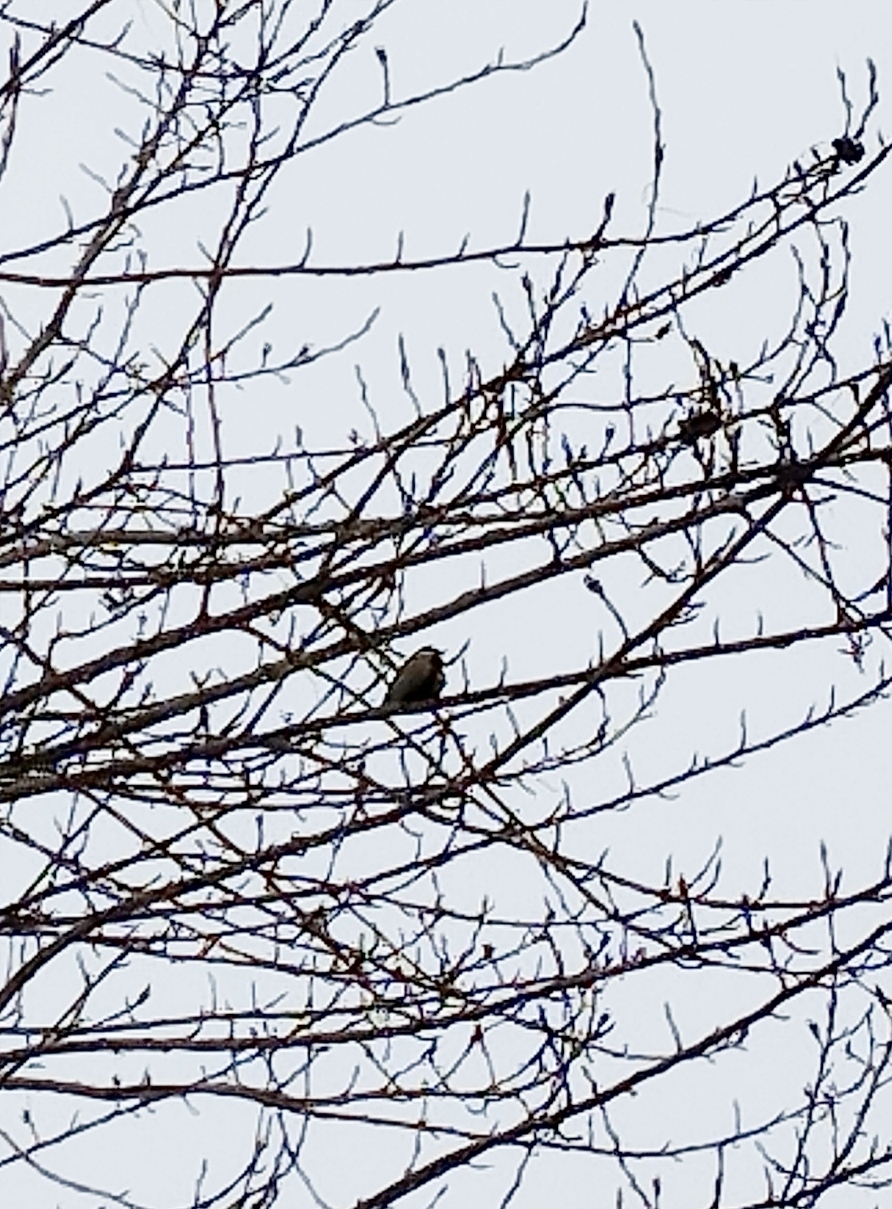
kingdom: Animalia
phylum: Chordata
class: Aves
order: Passeriformes
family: Paridae
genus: Parus
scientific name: Parus major
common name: Great tit
